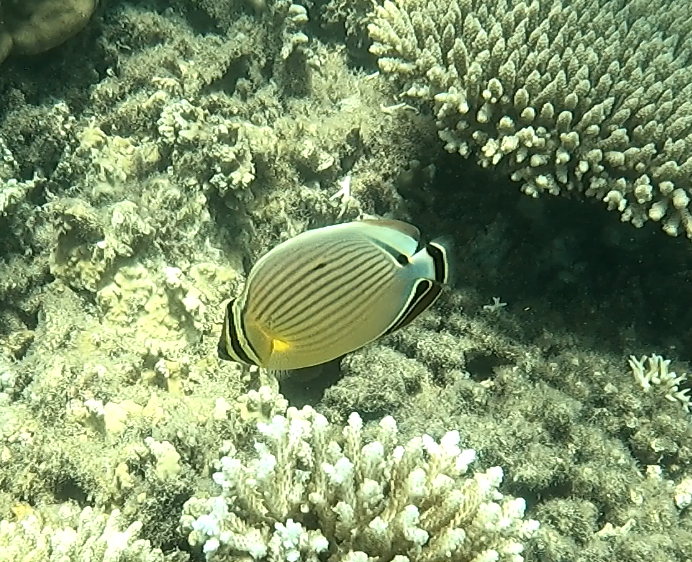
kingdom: Animalia
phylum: Chordata
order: Perciformes
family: Chaetodontidae
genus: Chaetodon
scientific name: Chaetodon lunulatus
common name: Redfin butterflyfish
